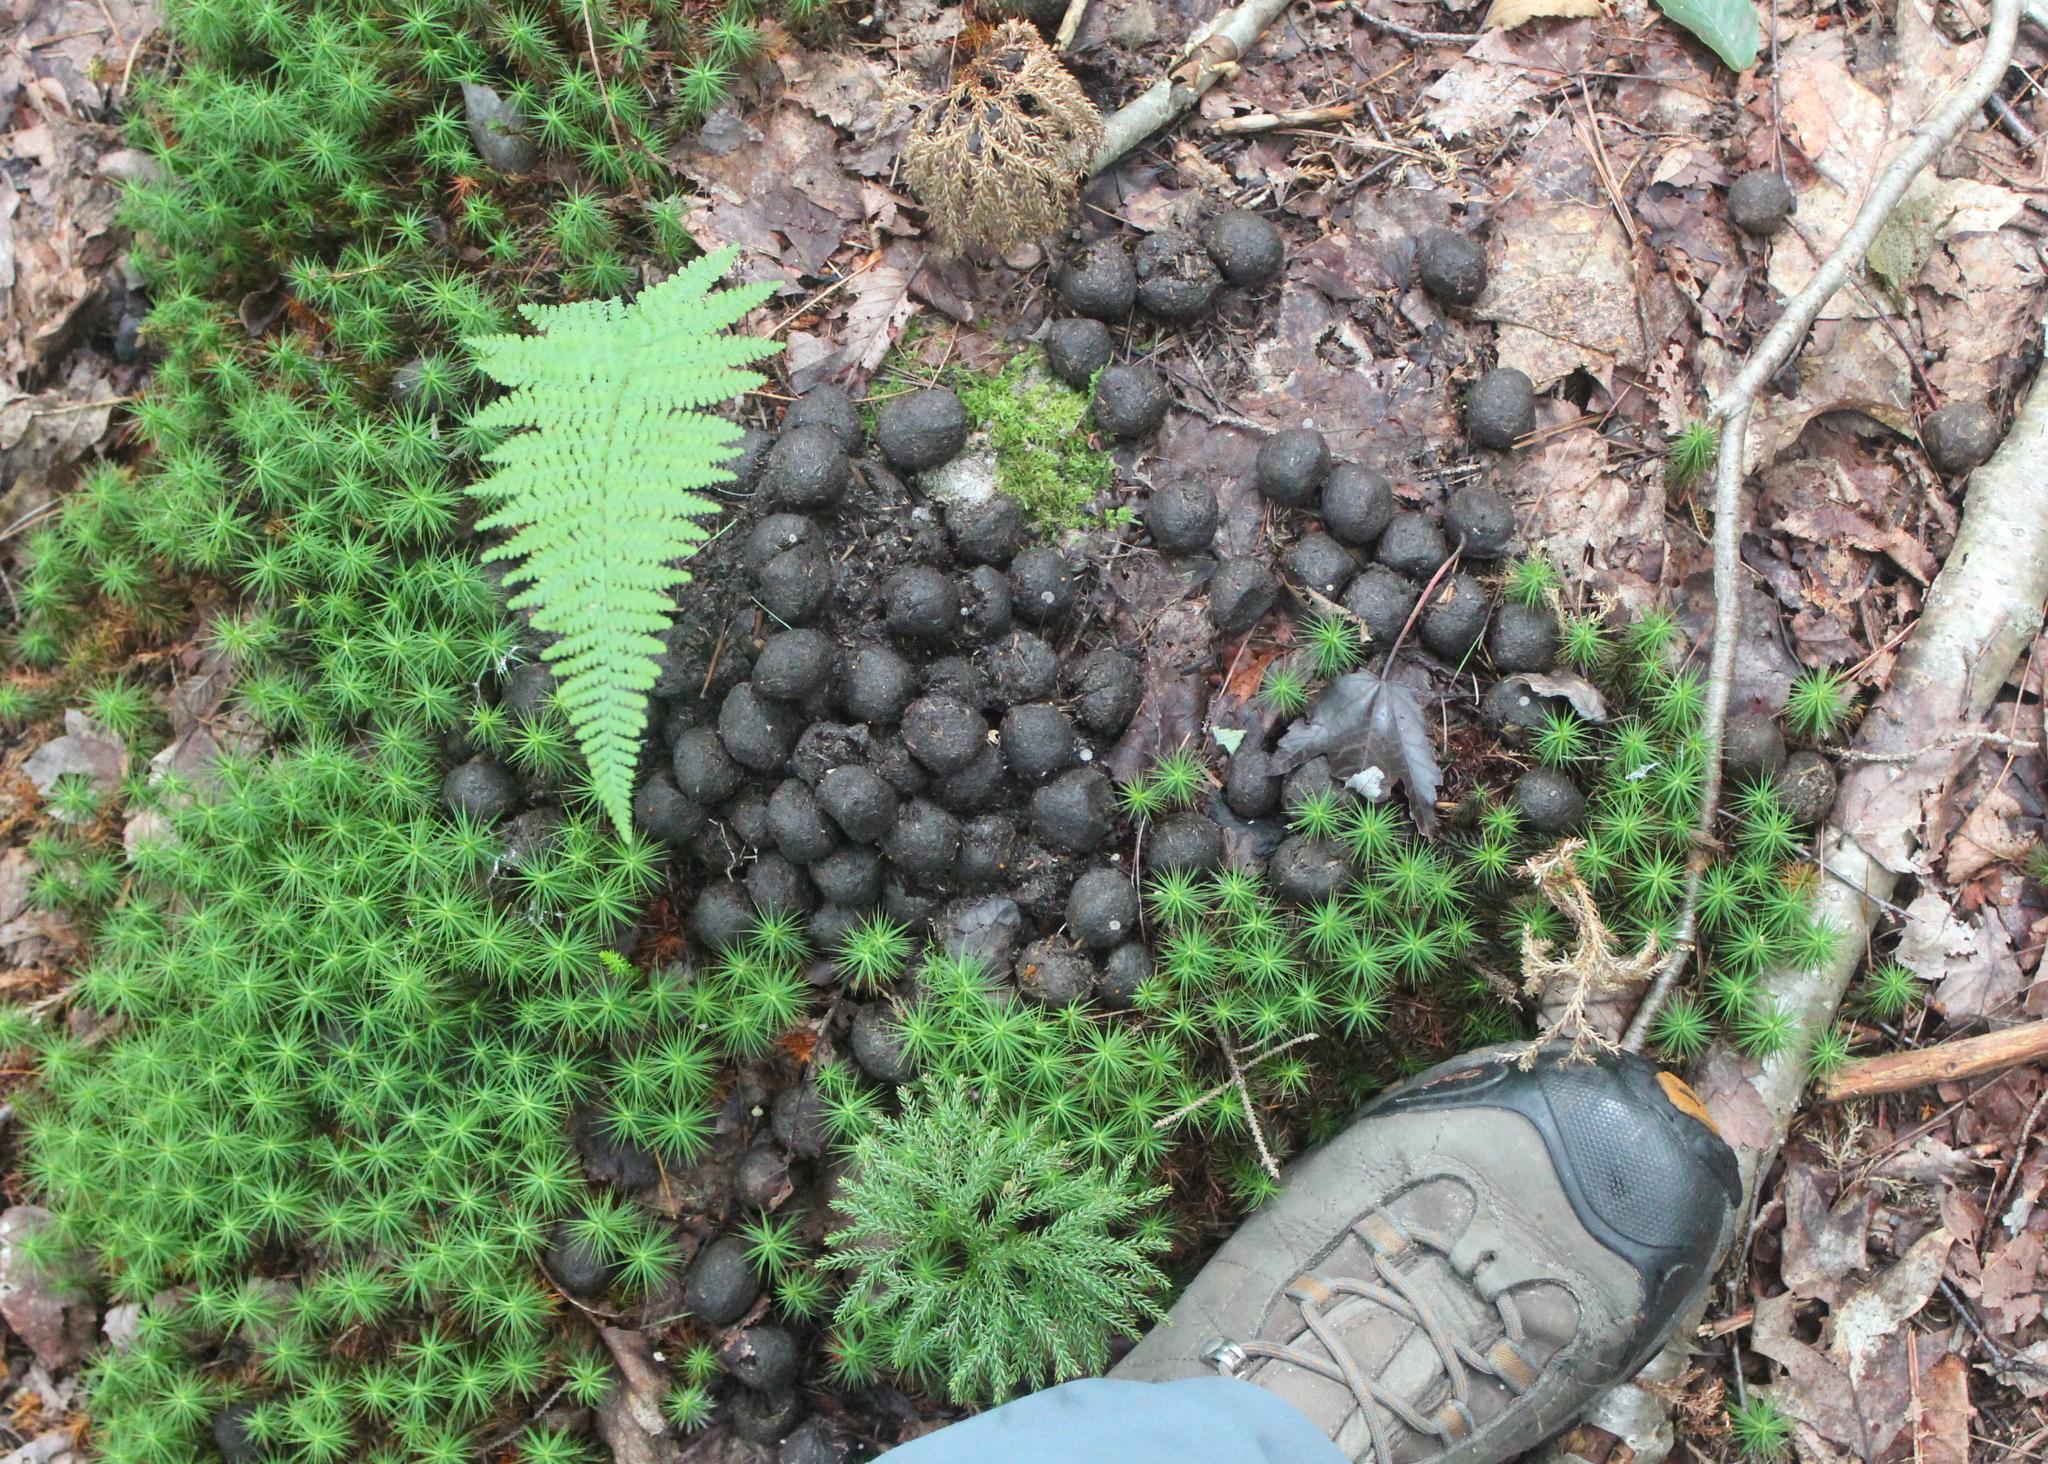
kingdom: Animalia
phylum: Chordata
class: Mammalia
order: Artiodactyla
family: Cervidae
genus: Alces
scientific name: Alces alces
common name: Moose
